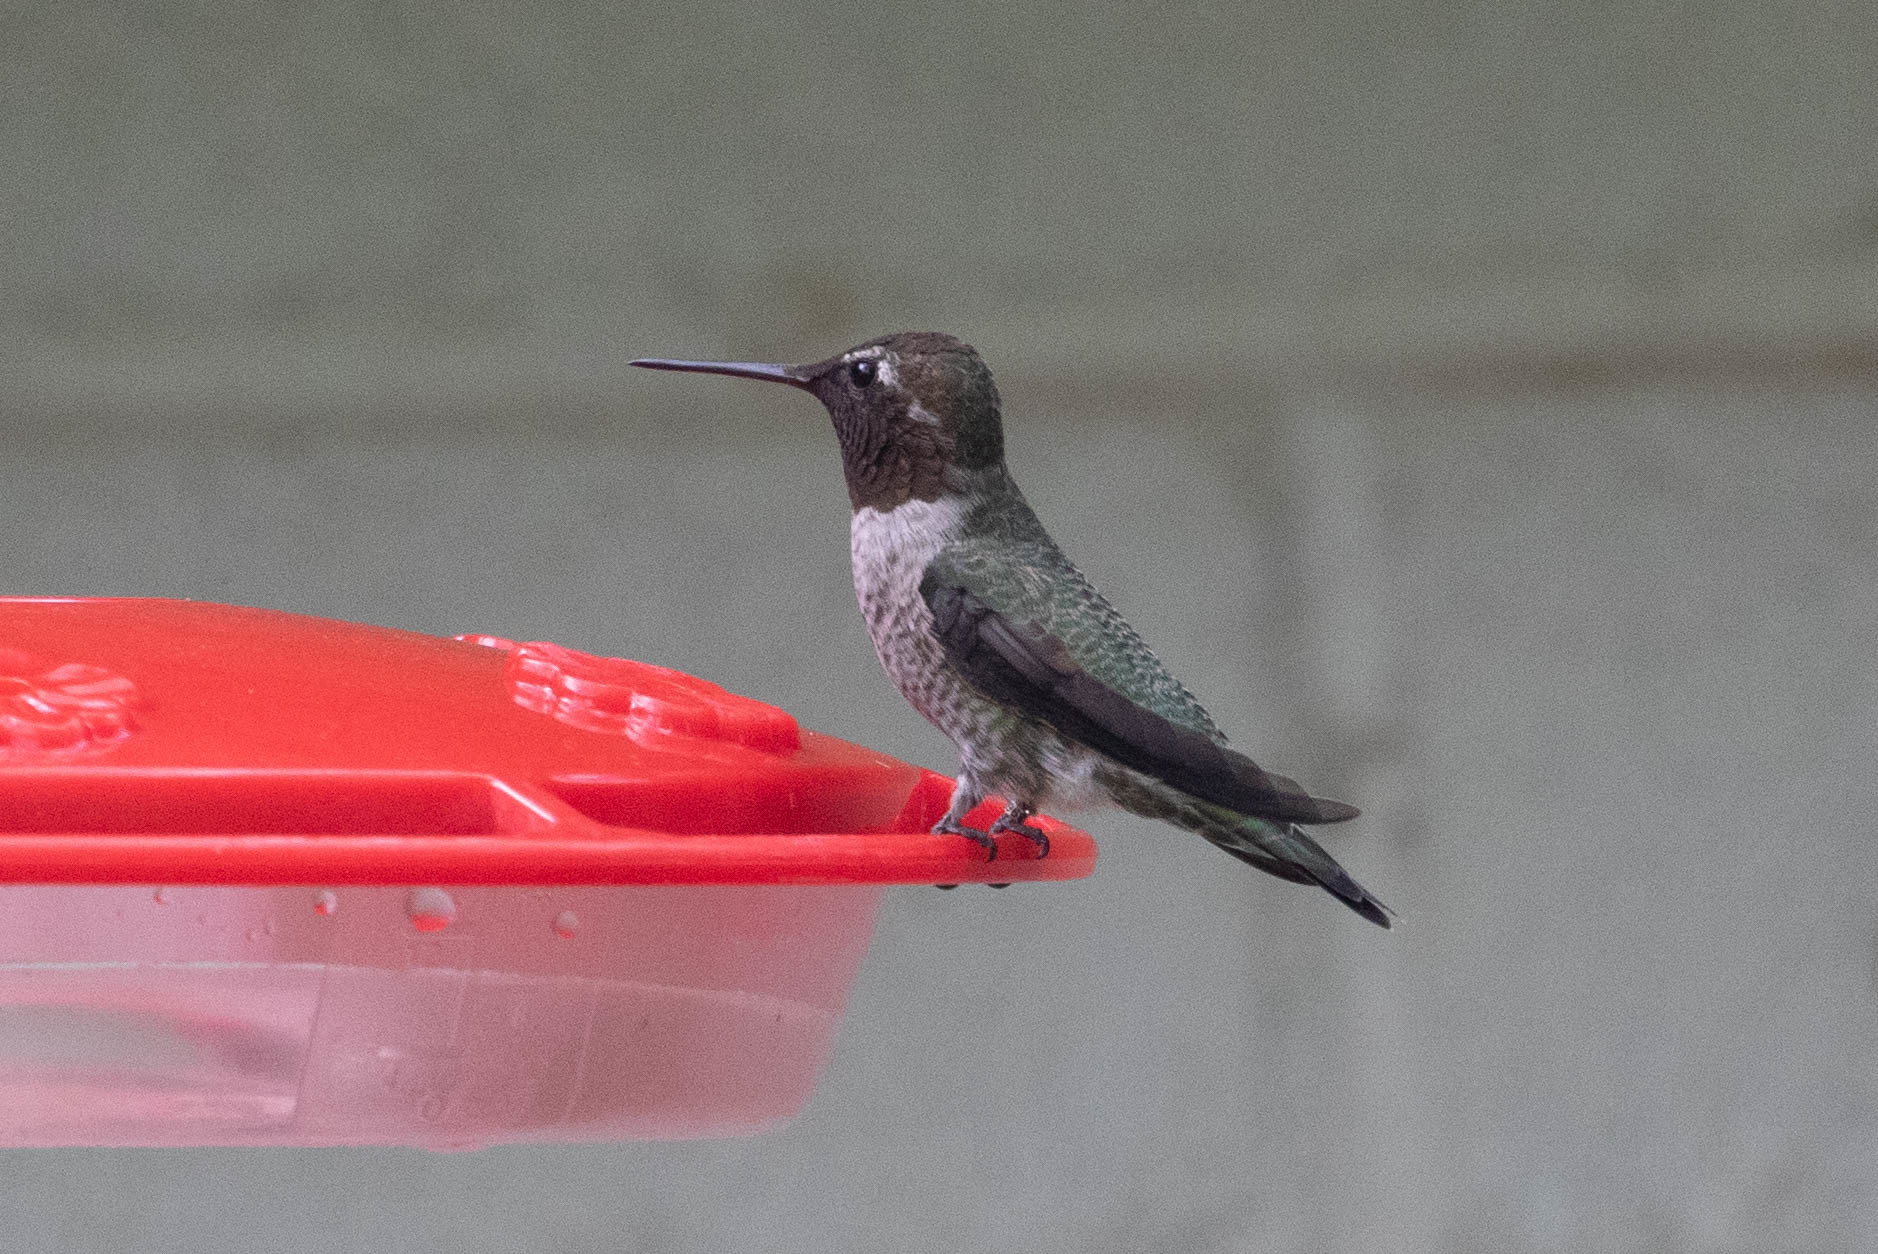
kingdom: Animalia
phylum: Chordata
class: Aves
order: Apodiformes
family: Trochilidae
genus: Calypte
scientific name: Calypte anna
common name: Anna's hummingbird
